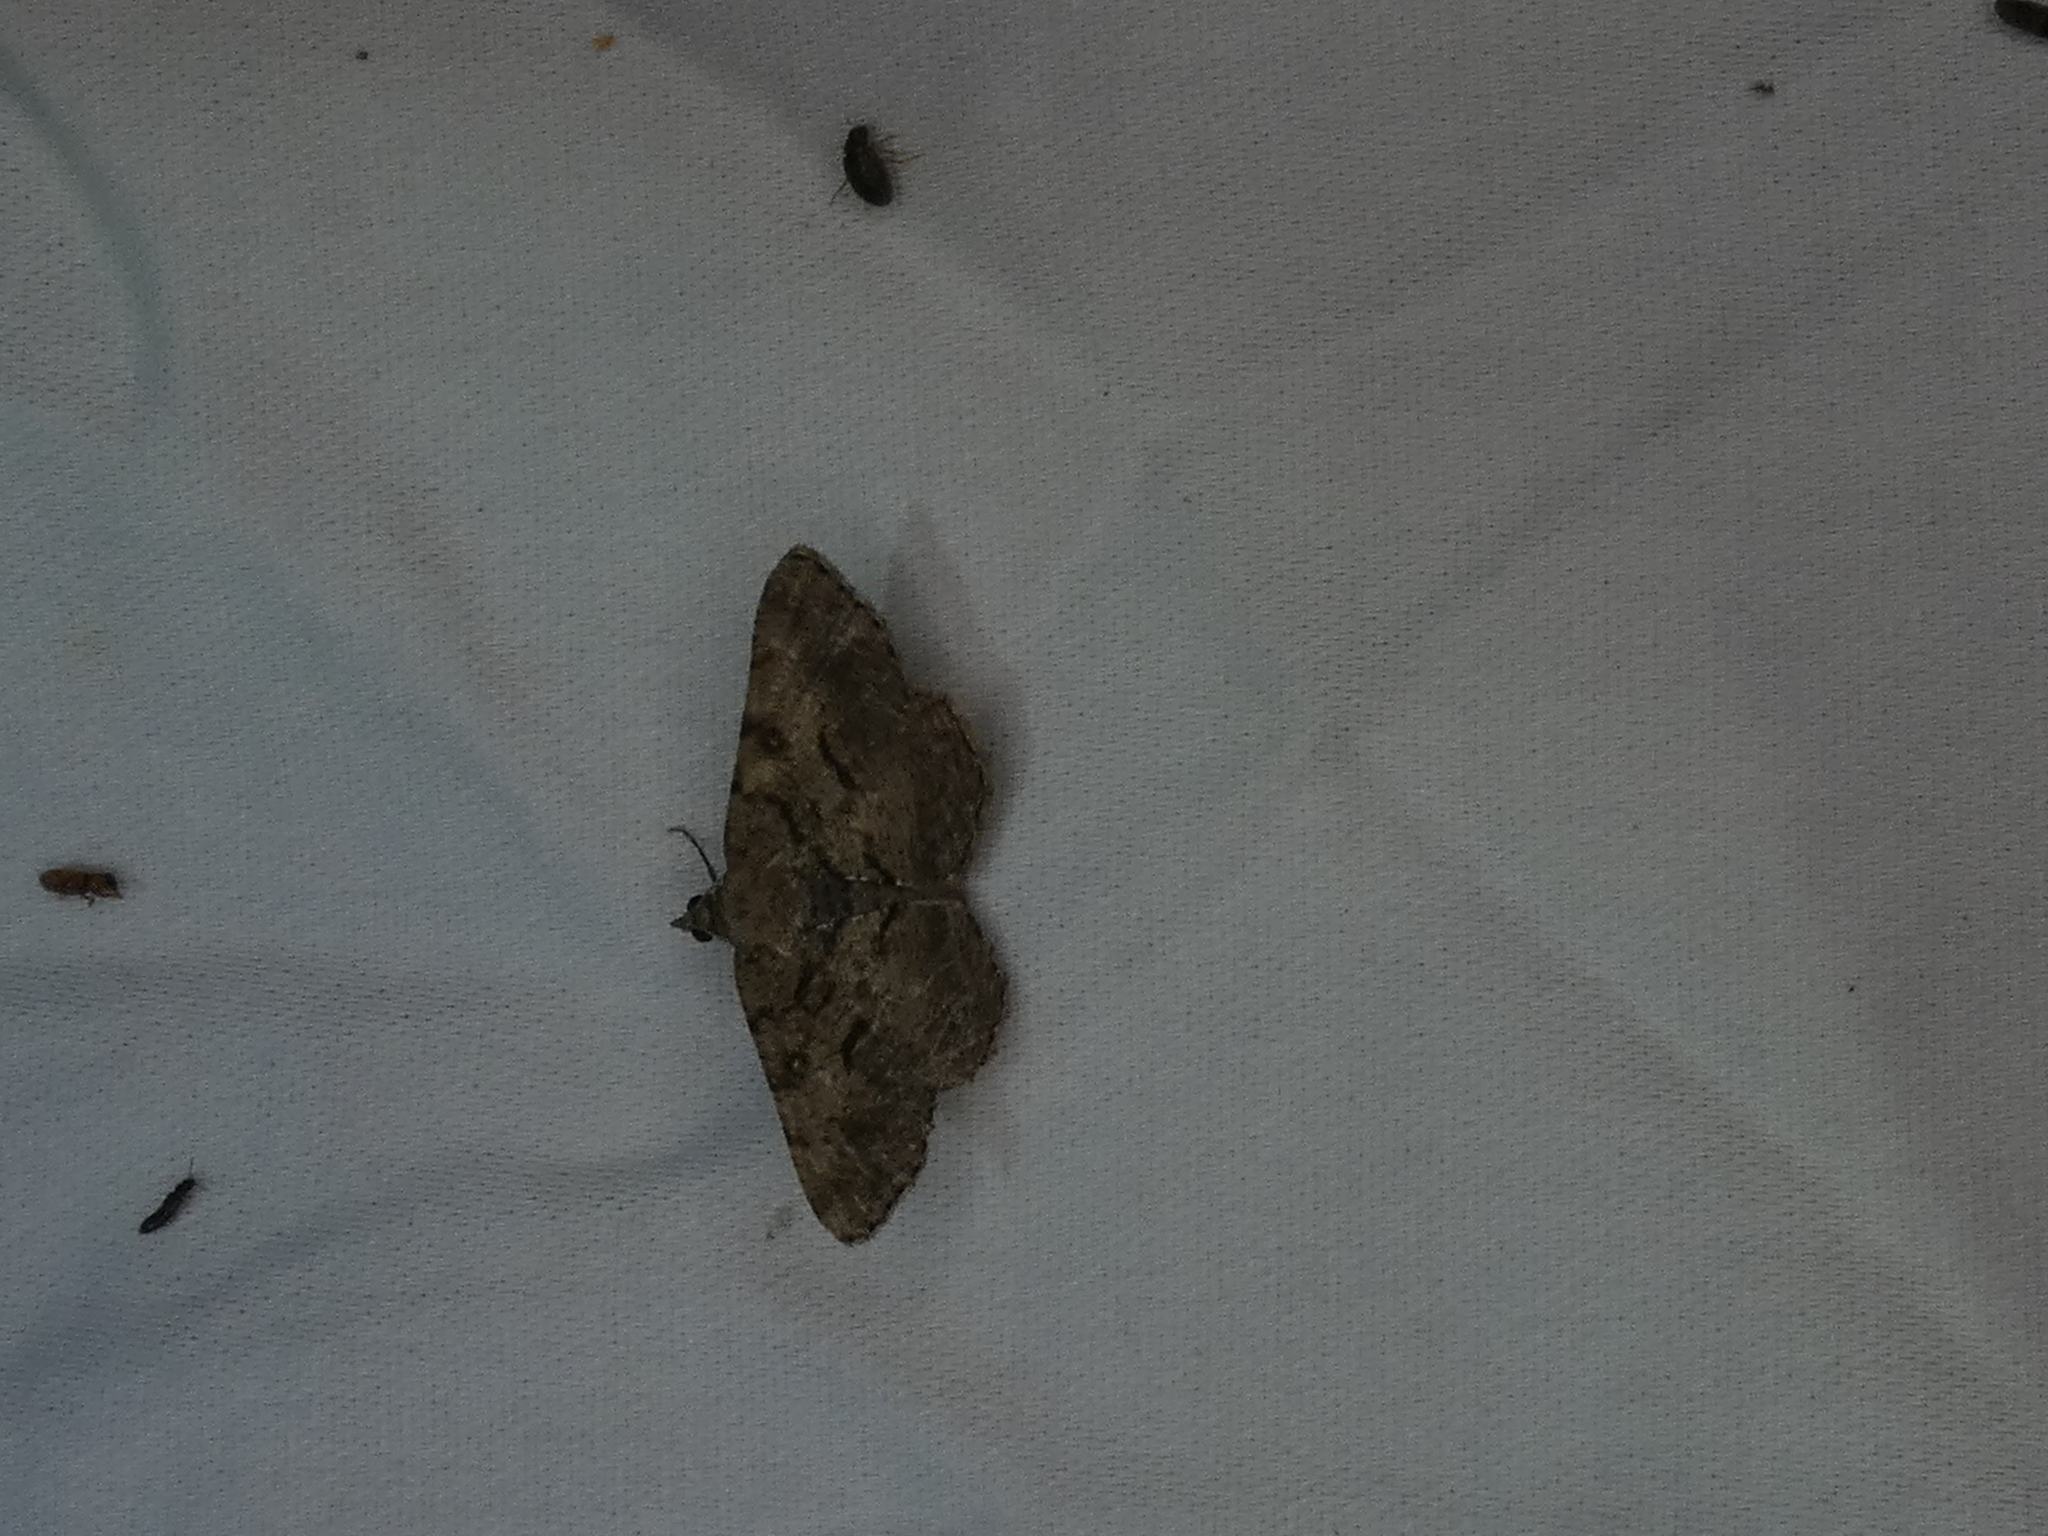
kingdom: Animalia
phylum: Arthropoda
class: Insecta
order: Lepidoptera
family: Geometridae
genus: Digrammia
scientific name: Digrammia gnophosaria
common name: Hollow-spotted angle
